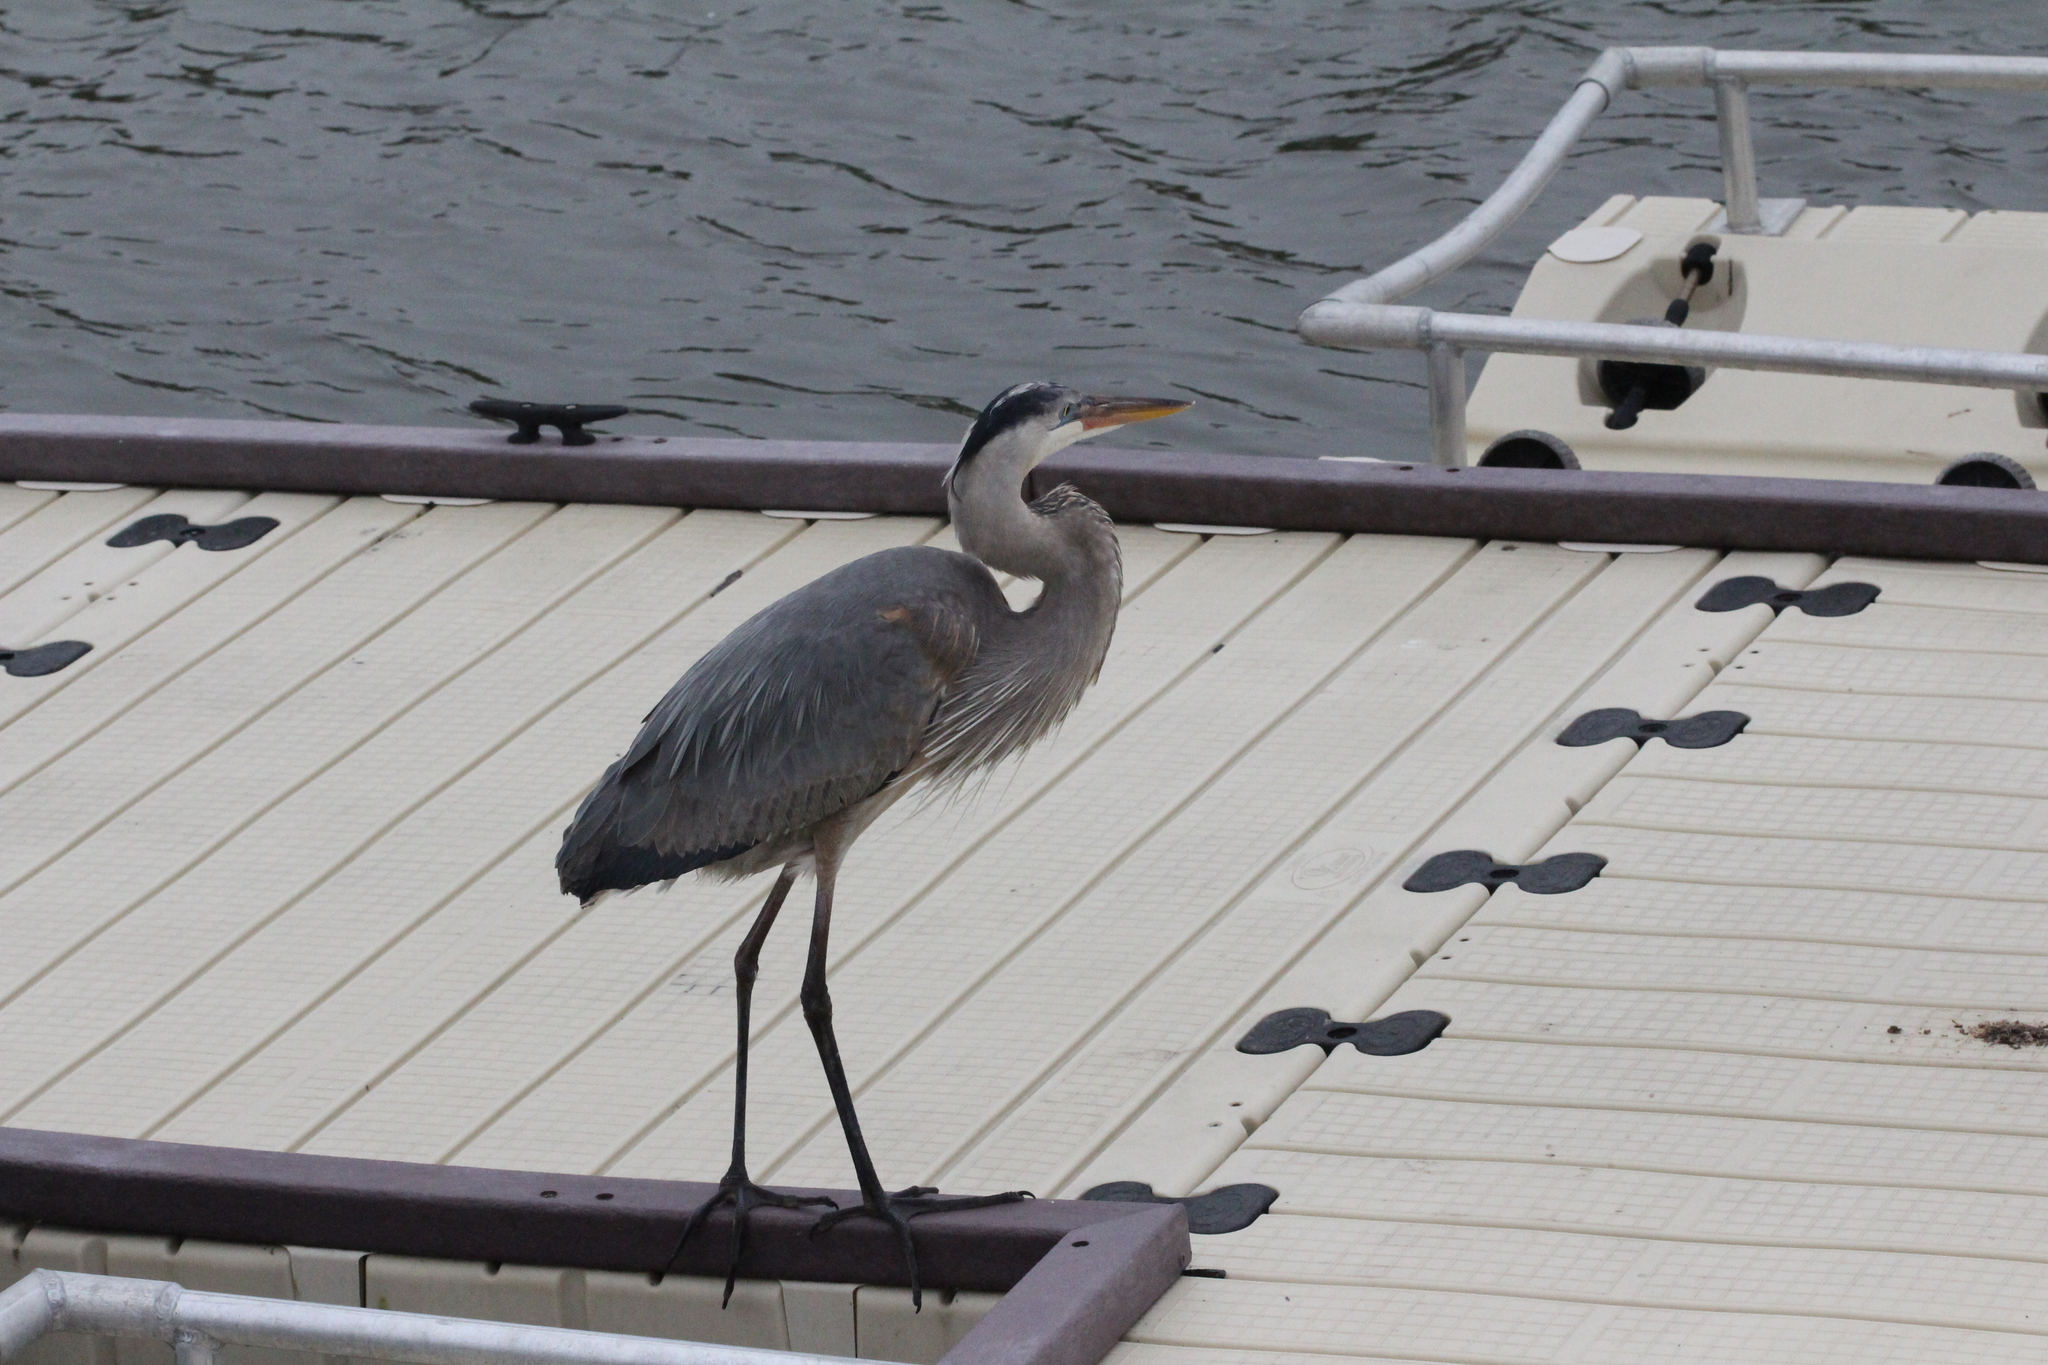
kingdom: Animalia
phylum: Chordata
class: Aves
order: Pelecaniformes
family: Ardeidae
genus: Ardea
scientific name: Ardea herodias
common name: Great blue heron
